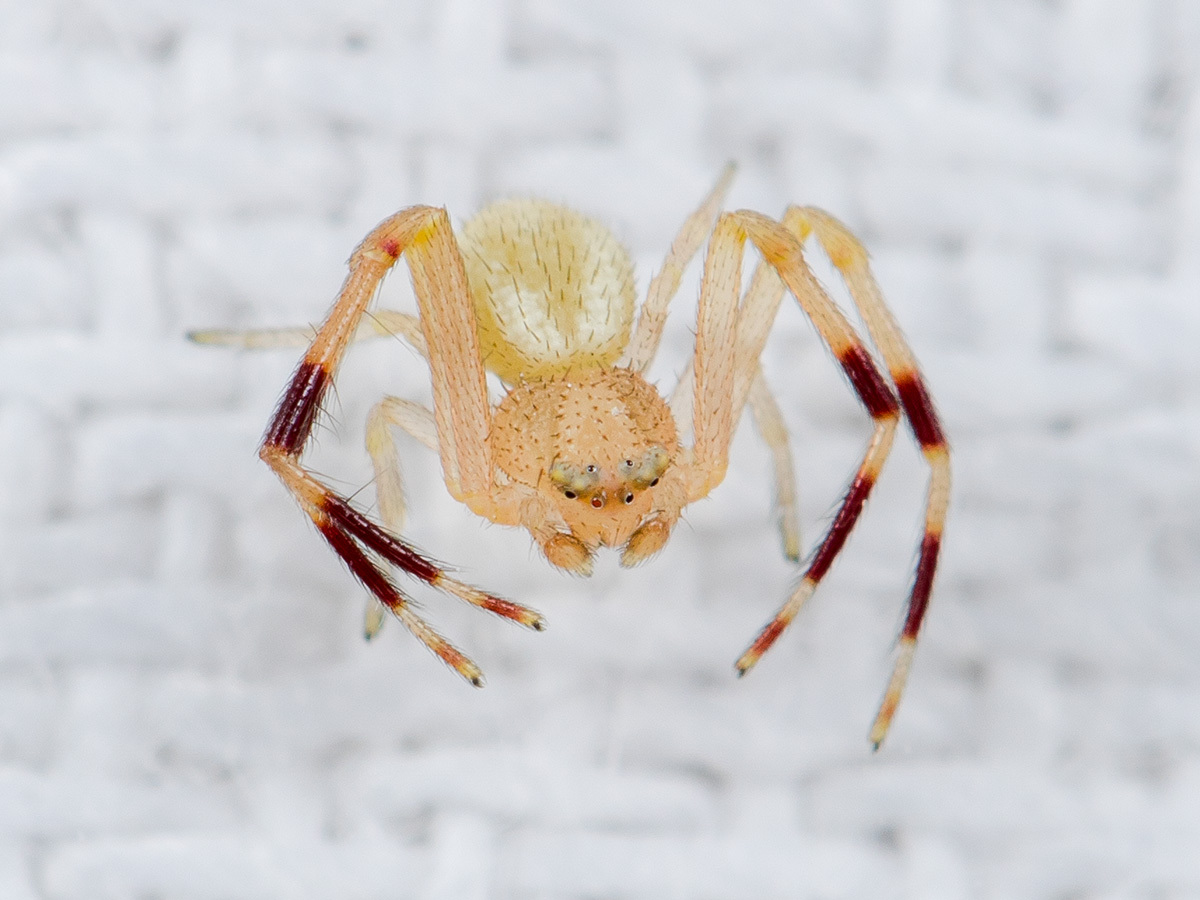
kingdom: Animalia
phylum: Arthropoda
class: Arachnida
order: Araneae
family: Thomisidae
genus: Misumenops
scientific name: Misumenops armatus
